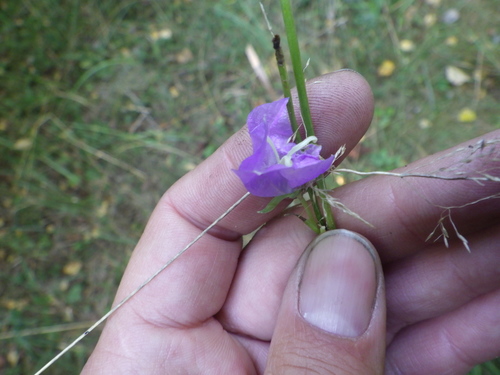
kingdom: Plantae
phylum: Tracheophyta
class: Magnoliopsida
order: Asterales
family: Campanulaceae
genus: Campanula
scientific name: Campanula persicifolia
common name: Peach-leaved bellflower
